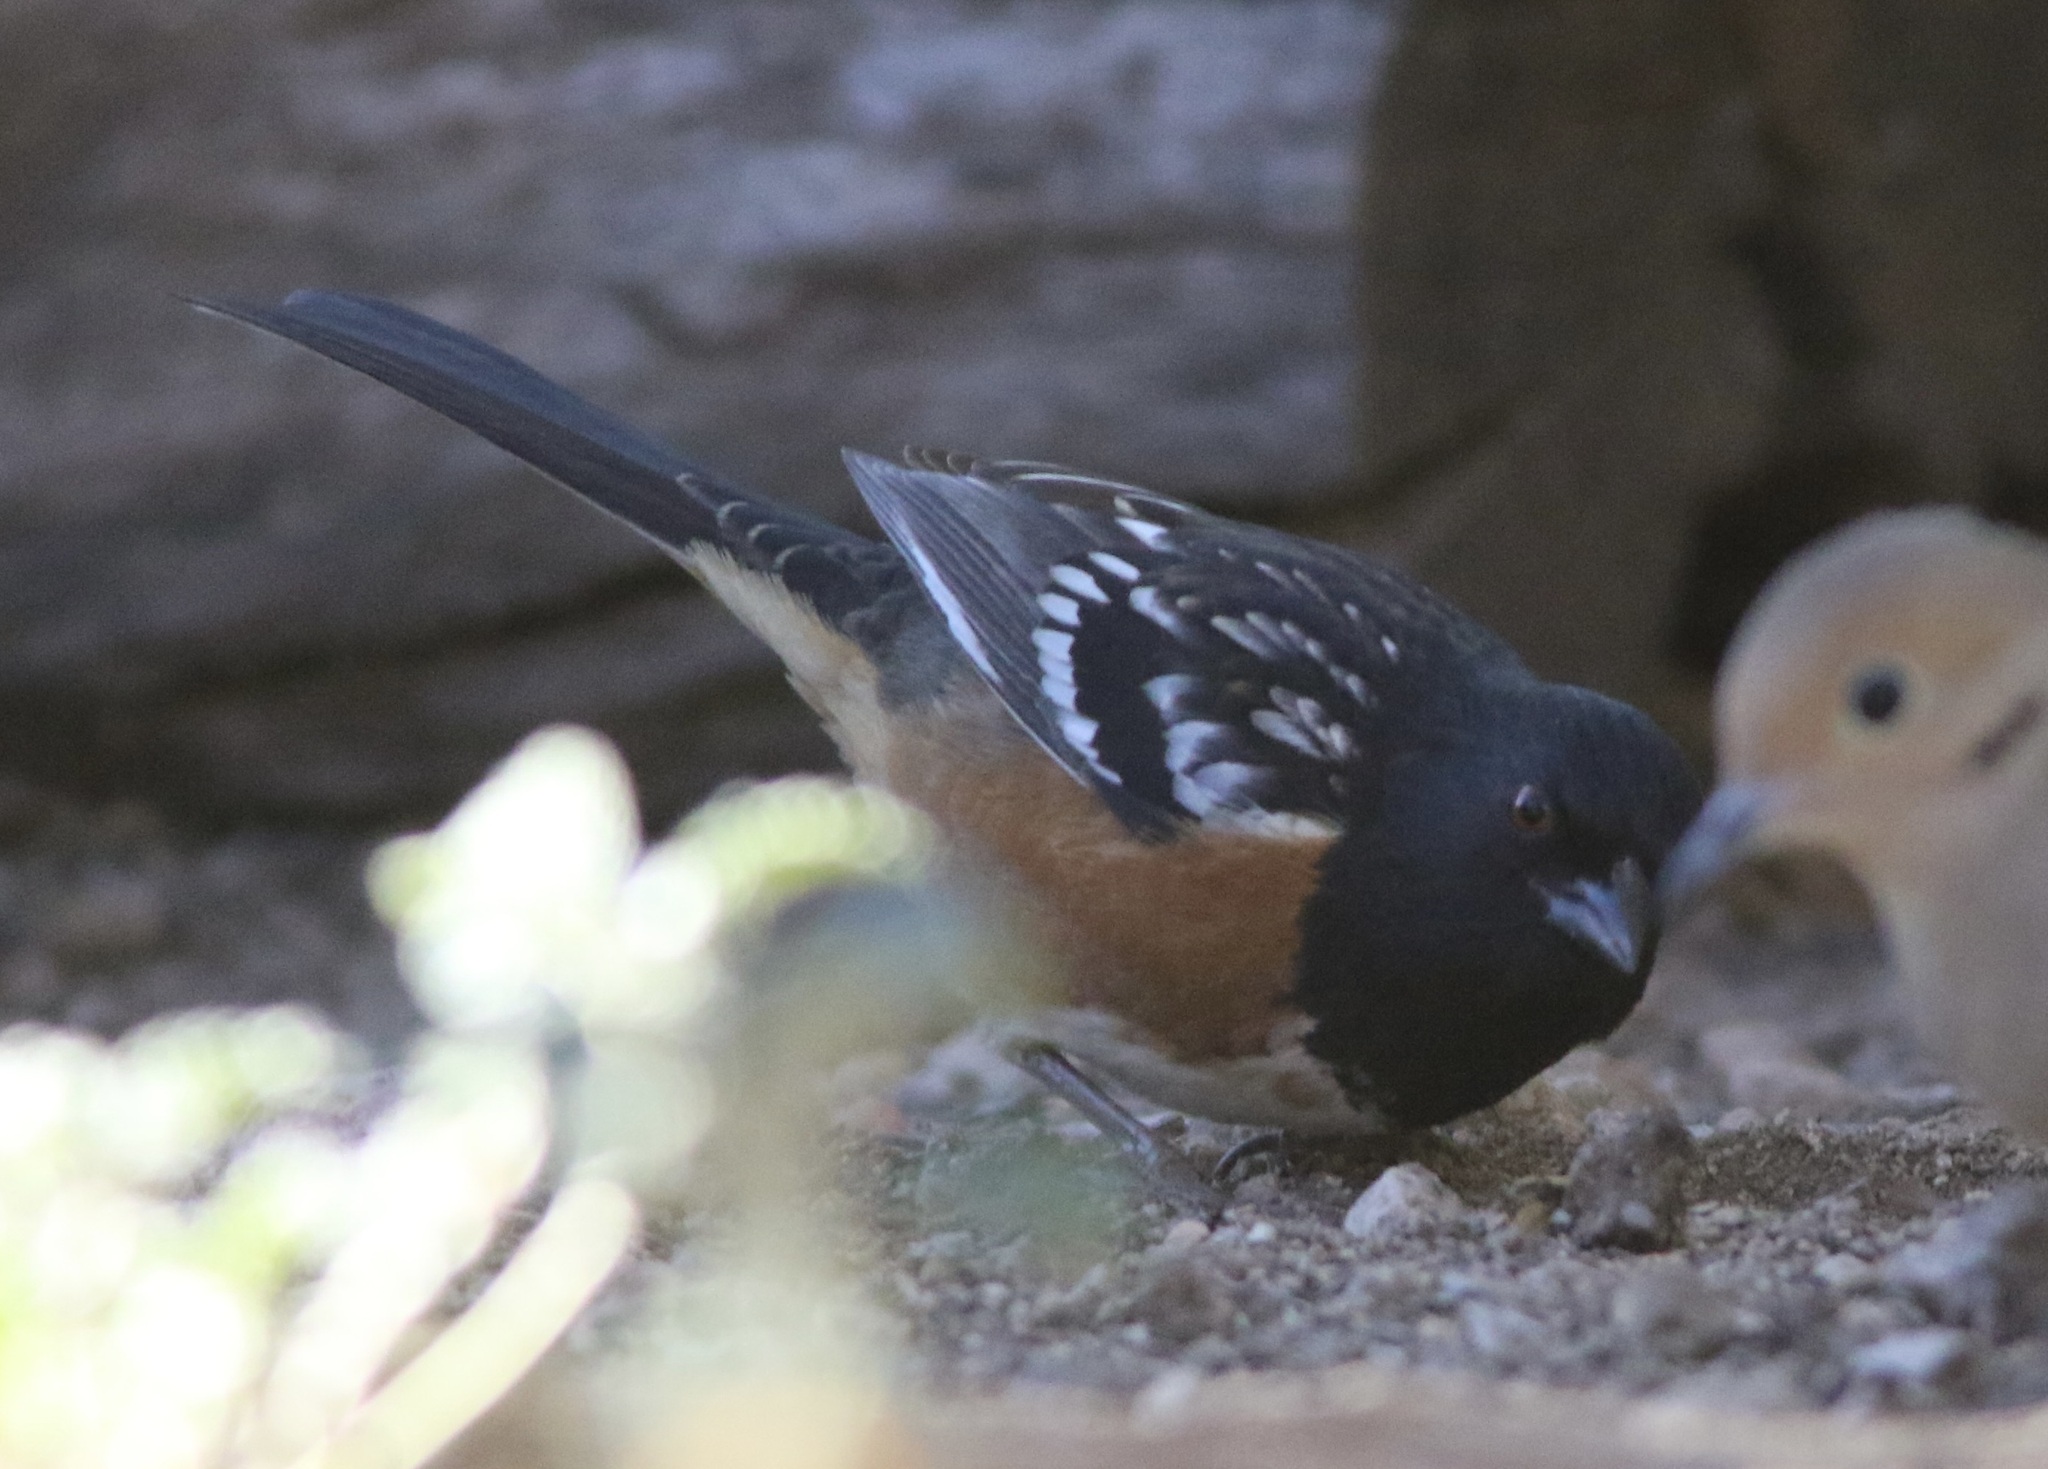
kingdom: Animalia
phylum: Chordata
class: Aves
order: Passeriformes
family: Passerellidae
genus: Pipilo
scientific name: Pipilo maculatus
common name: Spotted towhee
